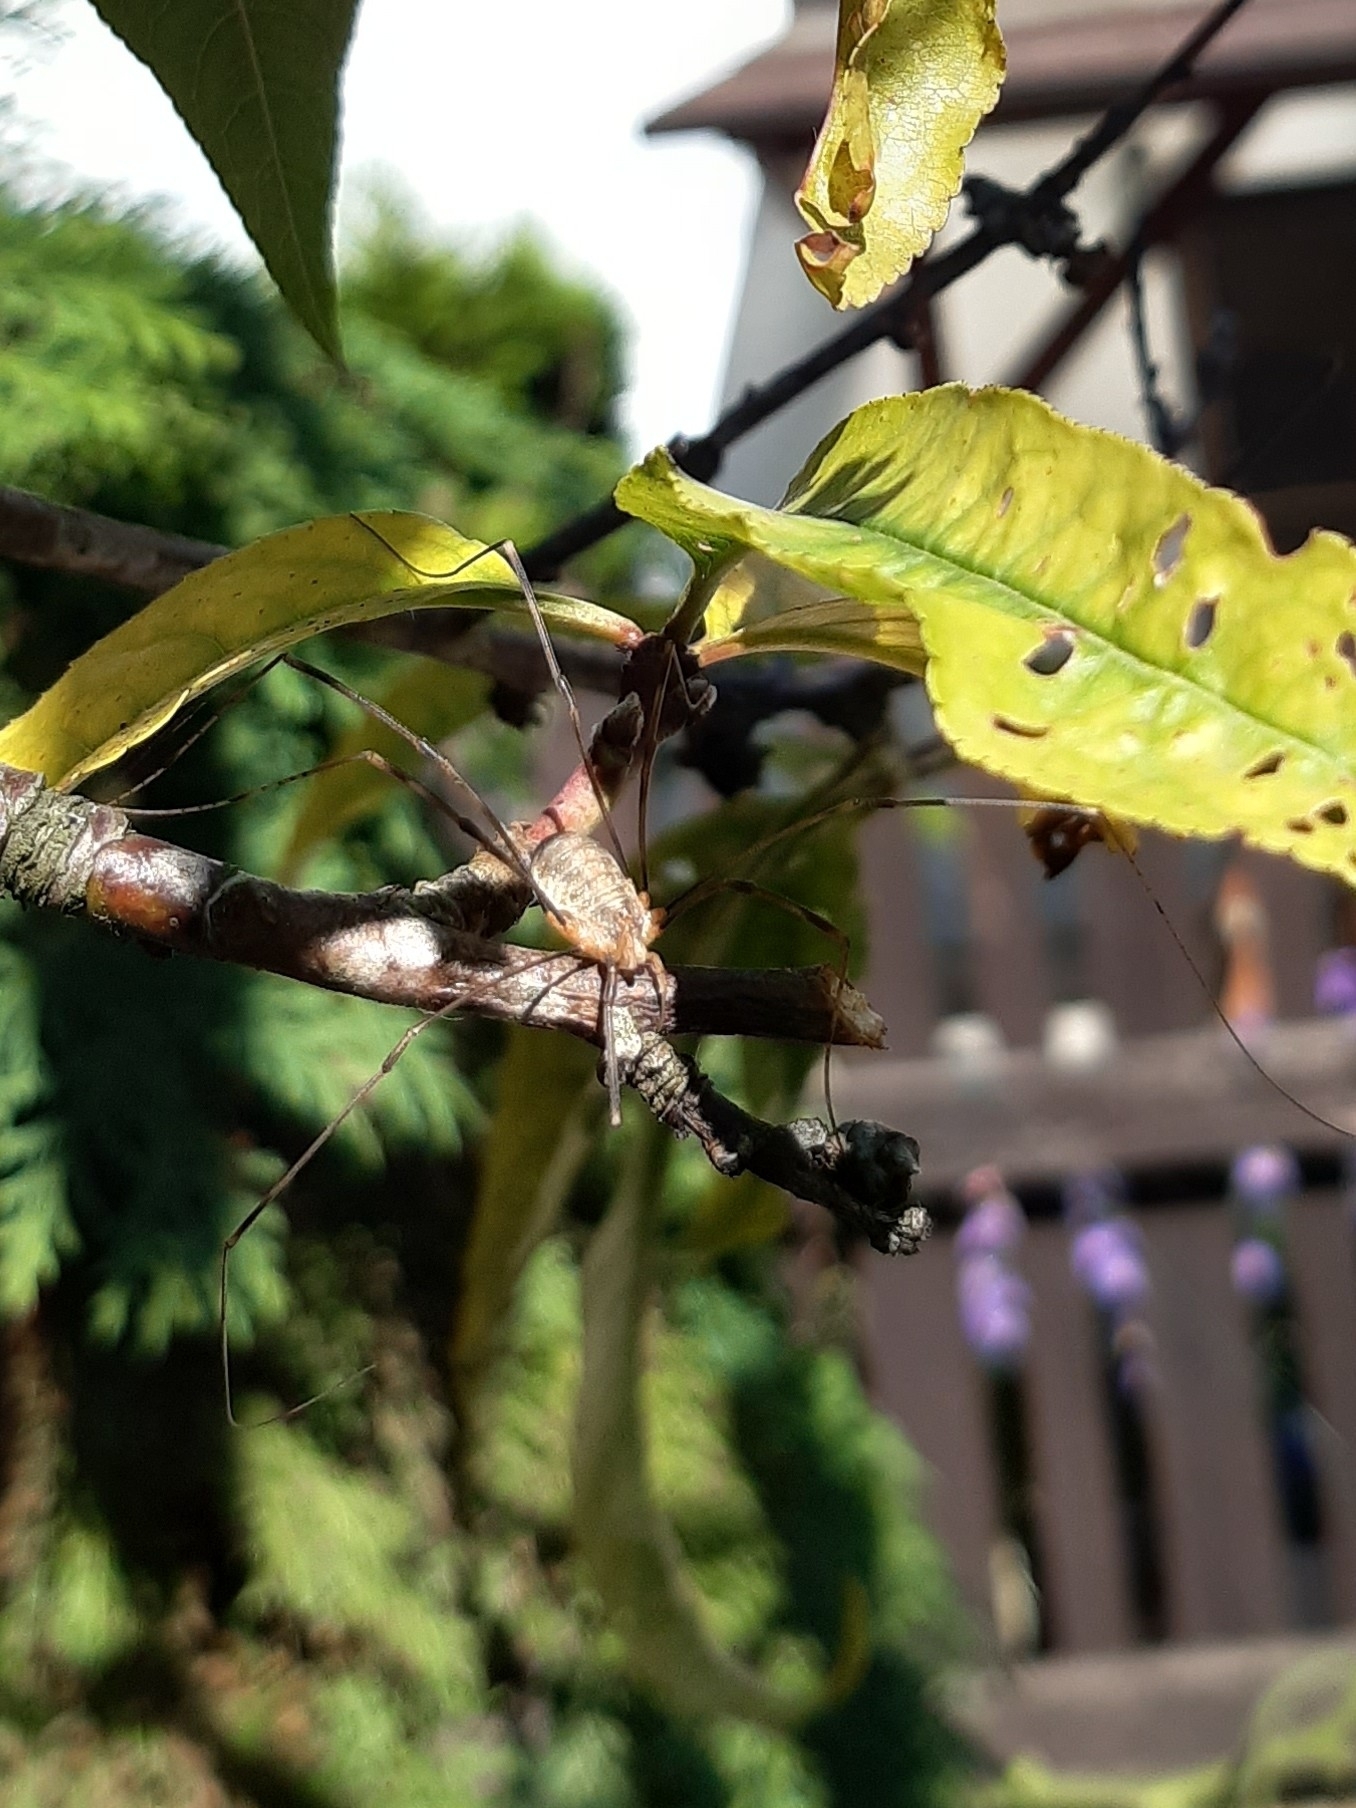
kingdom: Animalia
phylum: Arthropoda
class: Arachnida
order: Opiliones
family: Phalangiidae
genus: Opilio
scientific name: Opilio canestrinii
